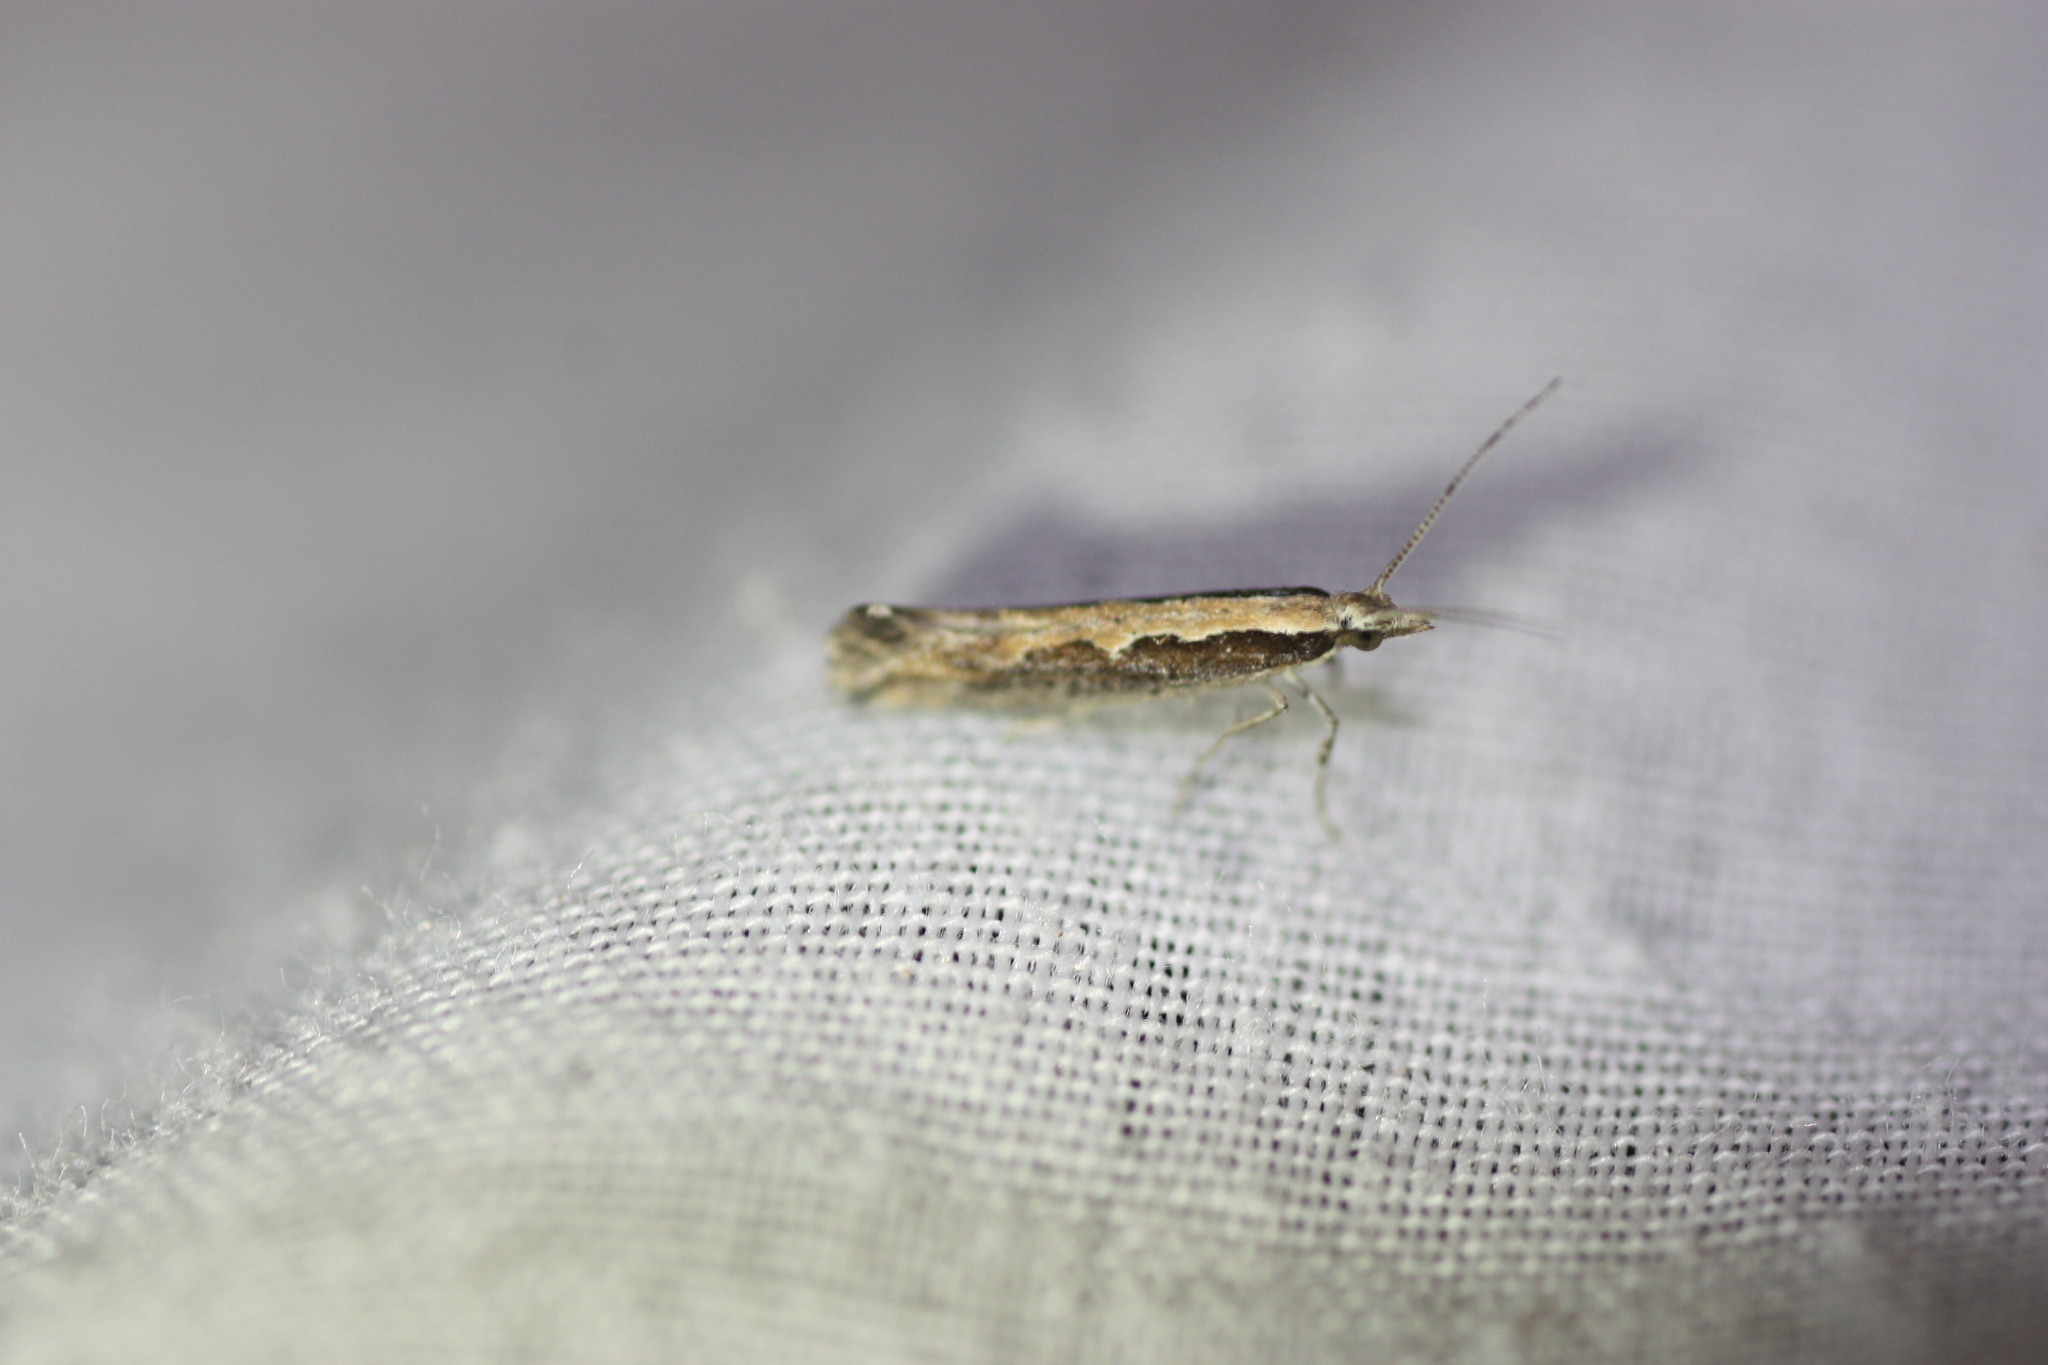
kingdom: Animalia
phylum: Arthropoda
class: Insecta
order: Lepidoptera
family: Plutellidae
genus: Plutella
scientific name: Plutella xylostella
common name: Diamond-back moth
